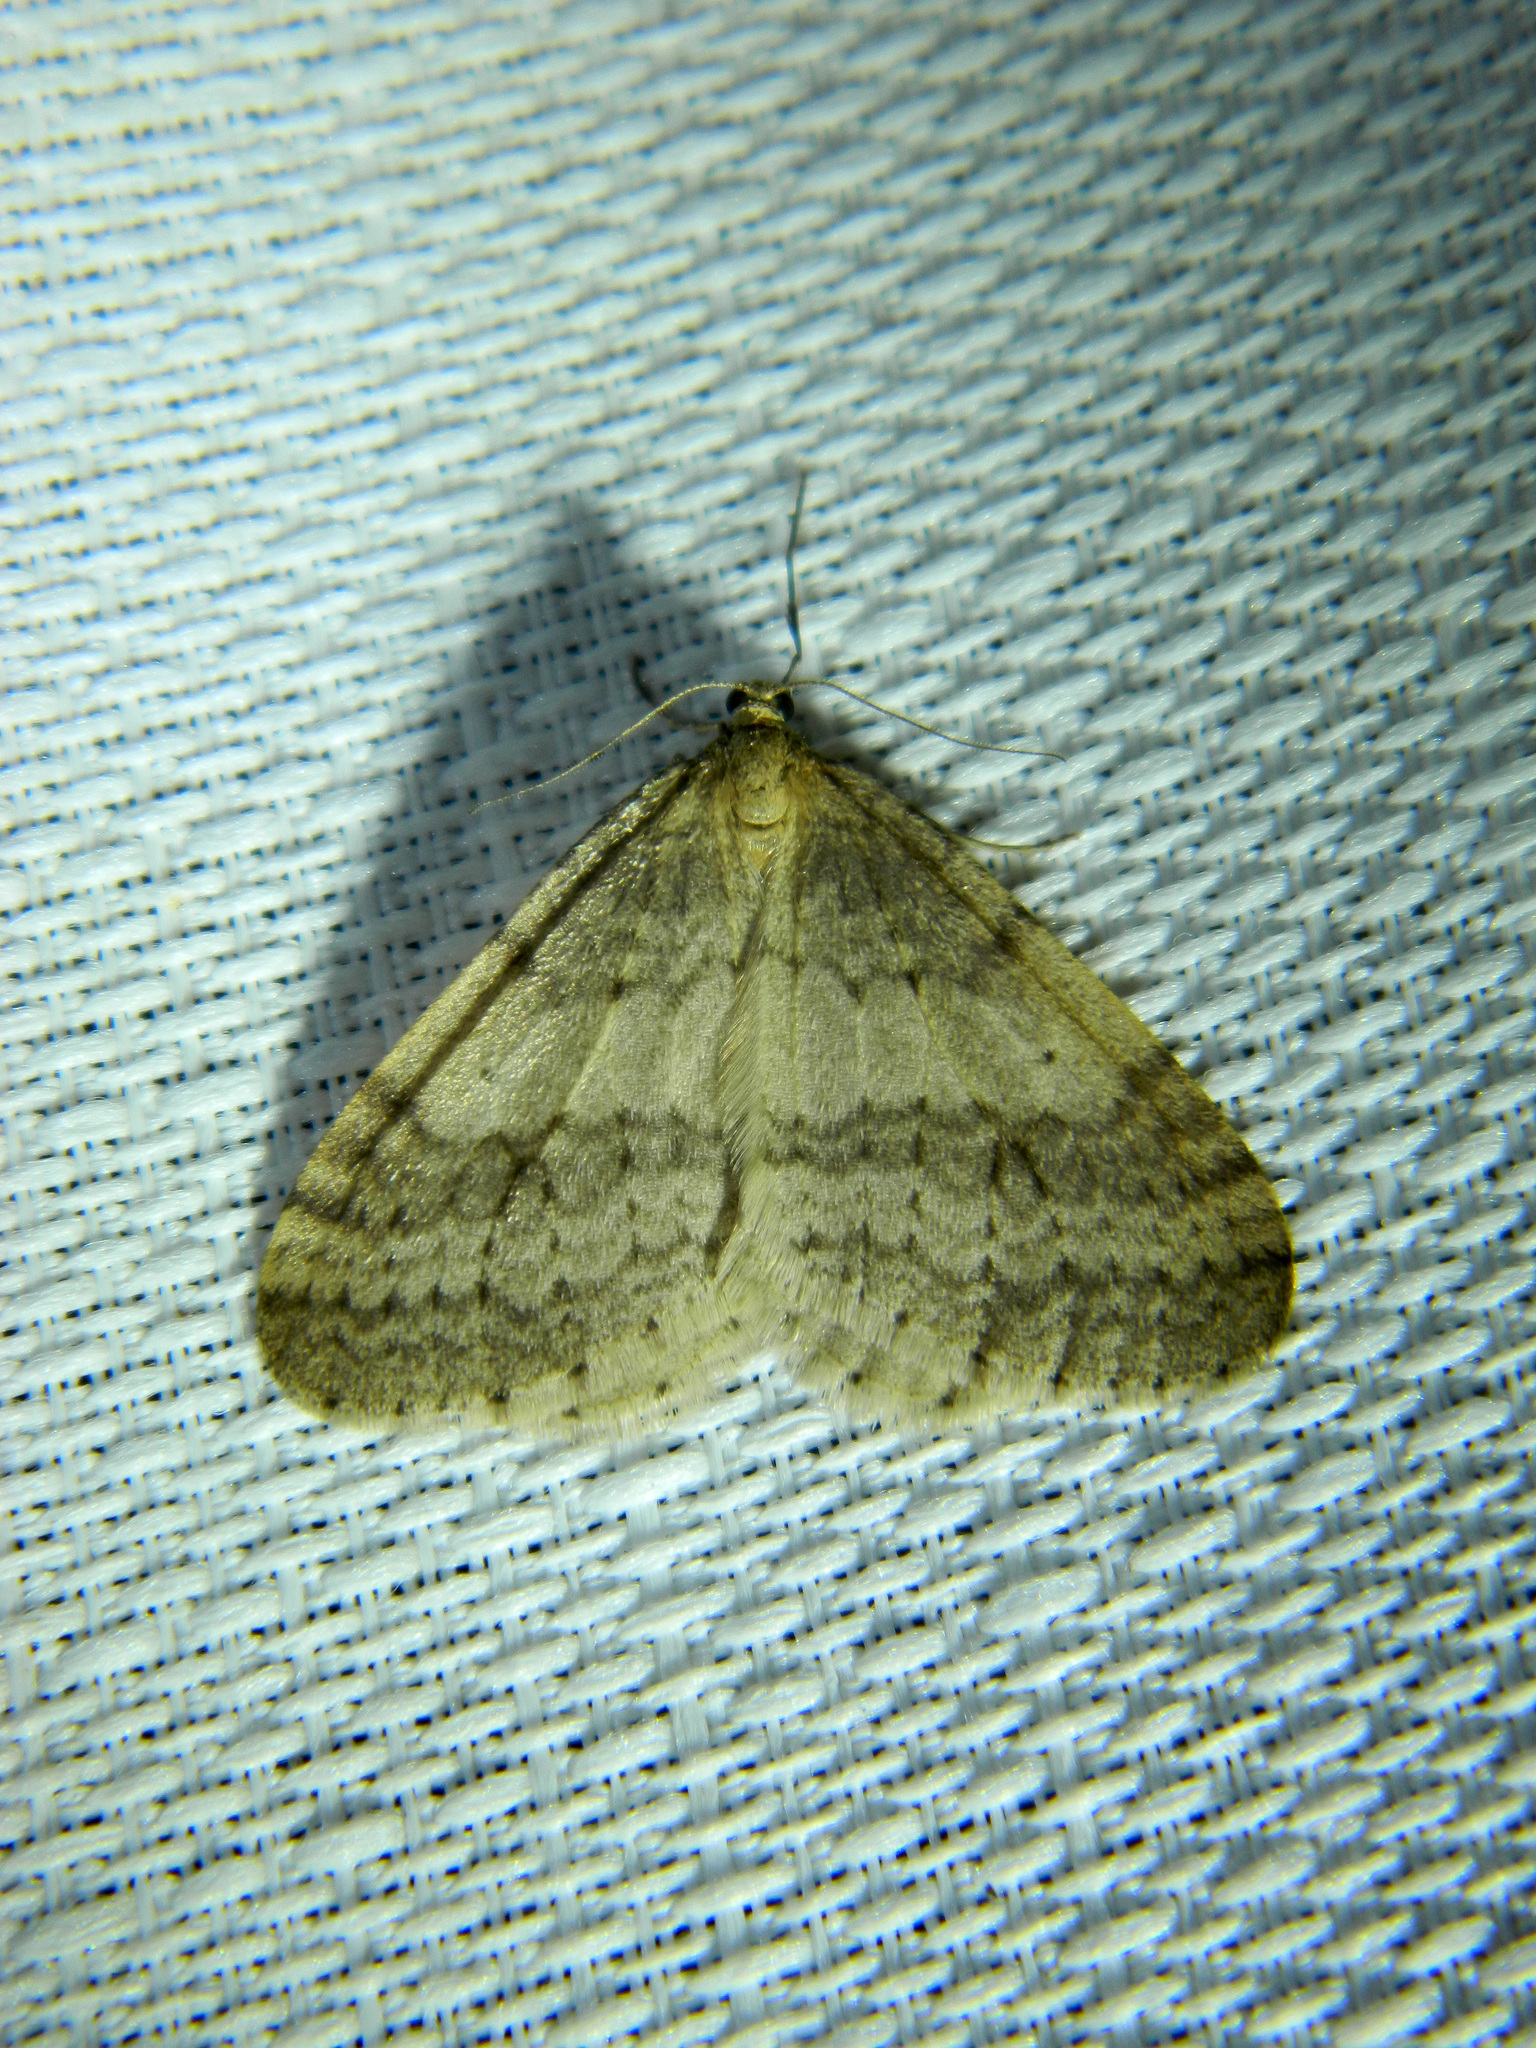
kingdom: Animalia
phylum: Arthropoda
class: Insecta
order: Lepidoptera
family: Geometridae
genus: Operophtera
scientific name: Operophtera bruceata
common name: Bruce spanworm
